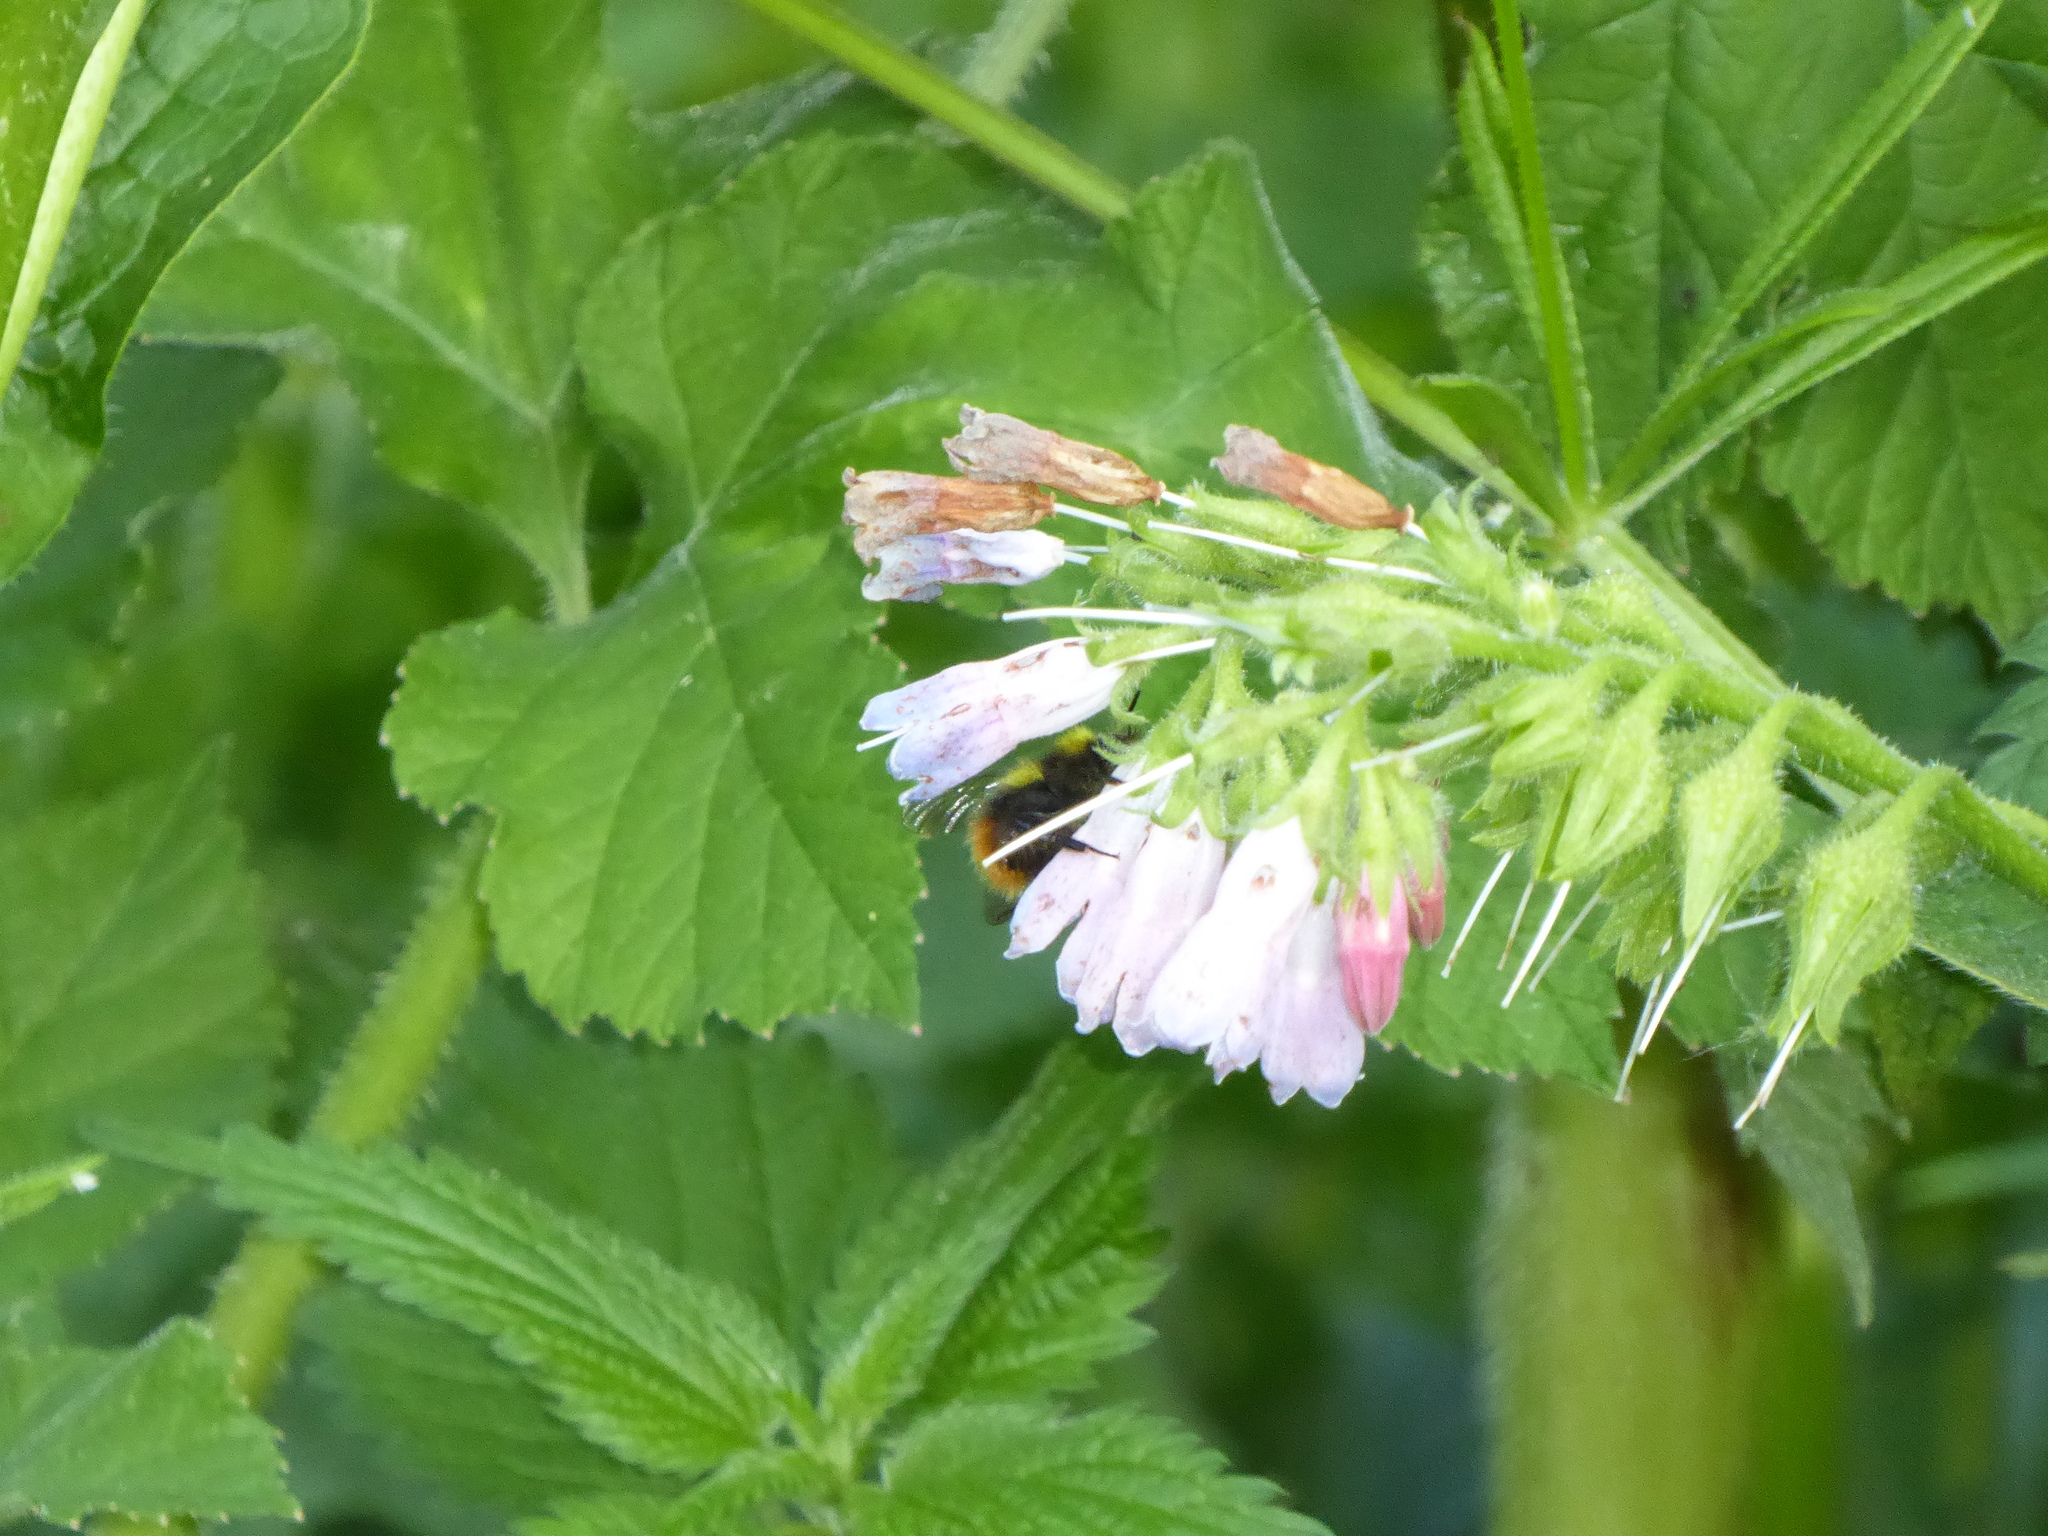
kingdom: Animalia
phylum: Arthropoda
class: Insecta
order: Hymenoptera
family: Apidae
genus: Bombus
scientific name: Bombus pratorum
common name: Early humble-bee
